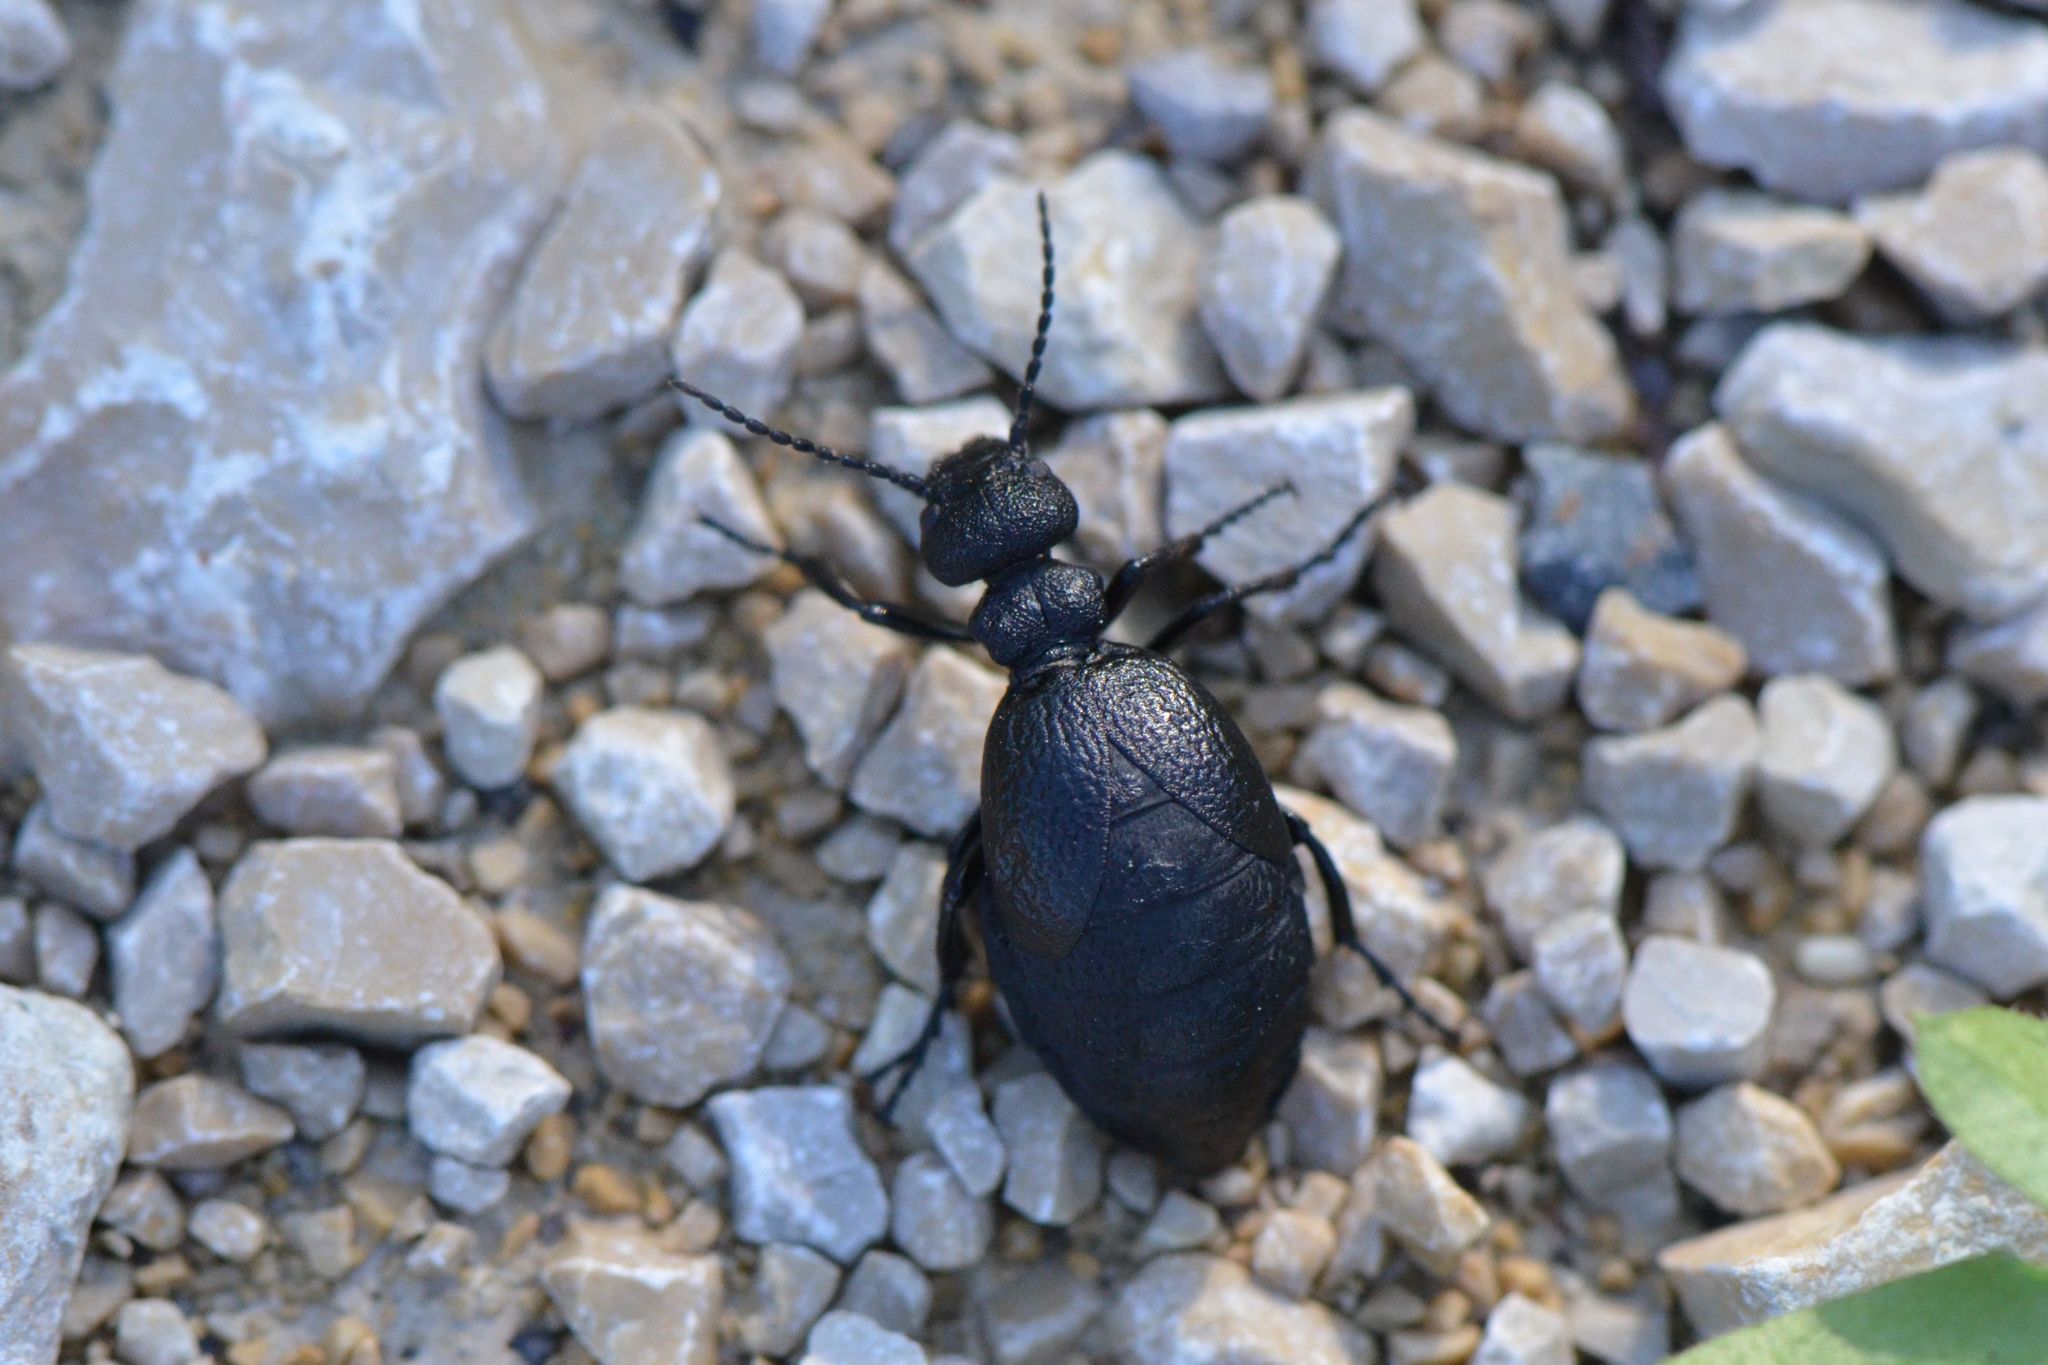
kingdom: Animalia
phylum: Arthropoda
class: Insecta
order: Coleoptera
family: Meloidae
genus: Meloe
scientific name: Meloe rugosus
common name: Rugged oil-beetle
